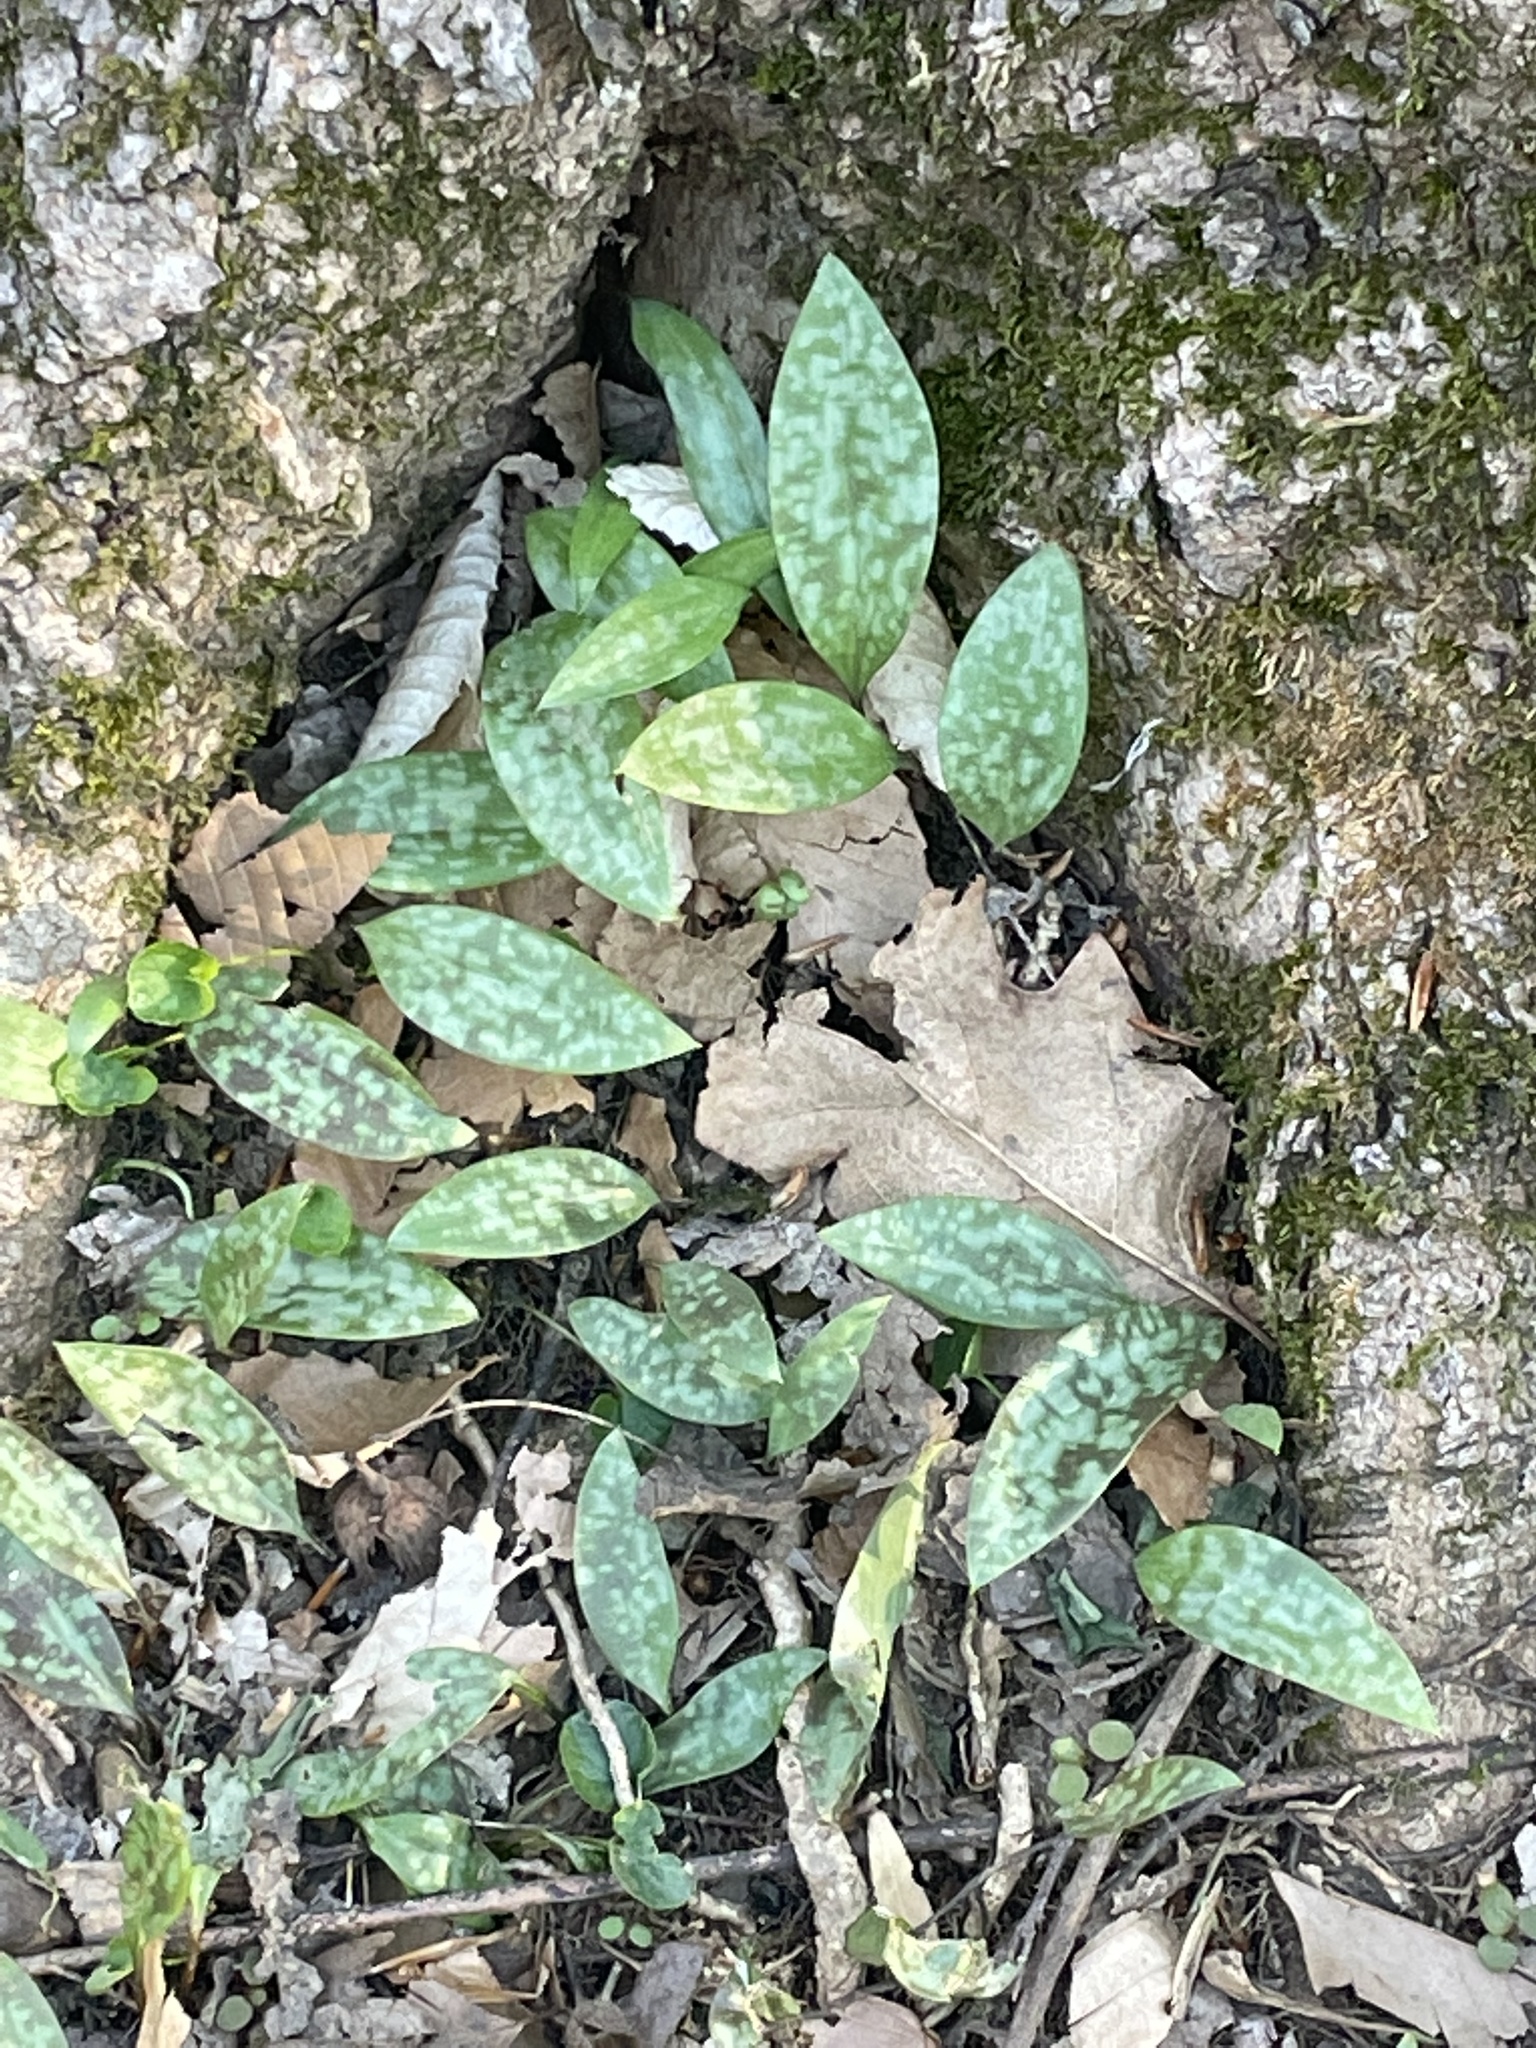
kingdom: Plantae
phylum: Tracheophyta
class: Liliopsida
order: Liliales
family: Liliaceae
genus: Erythronium
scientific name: Erythronium americanum
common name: Yellow adder's-tongue
